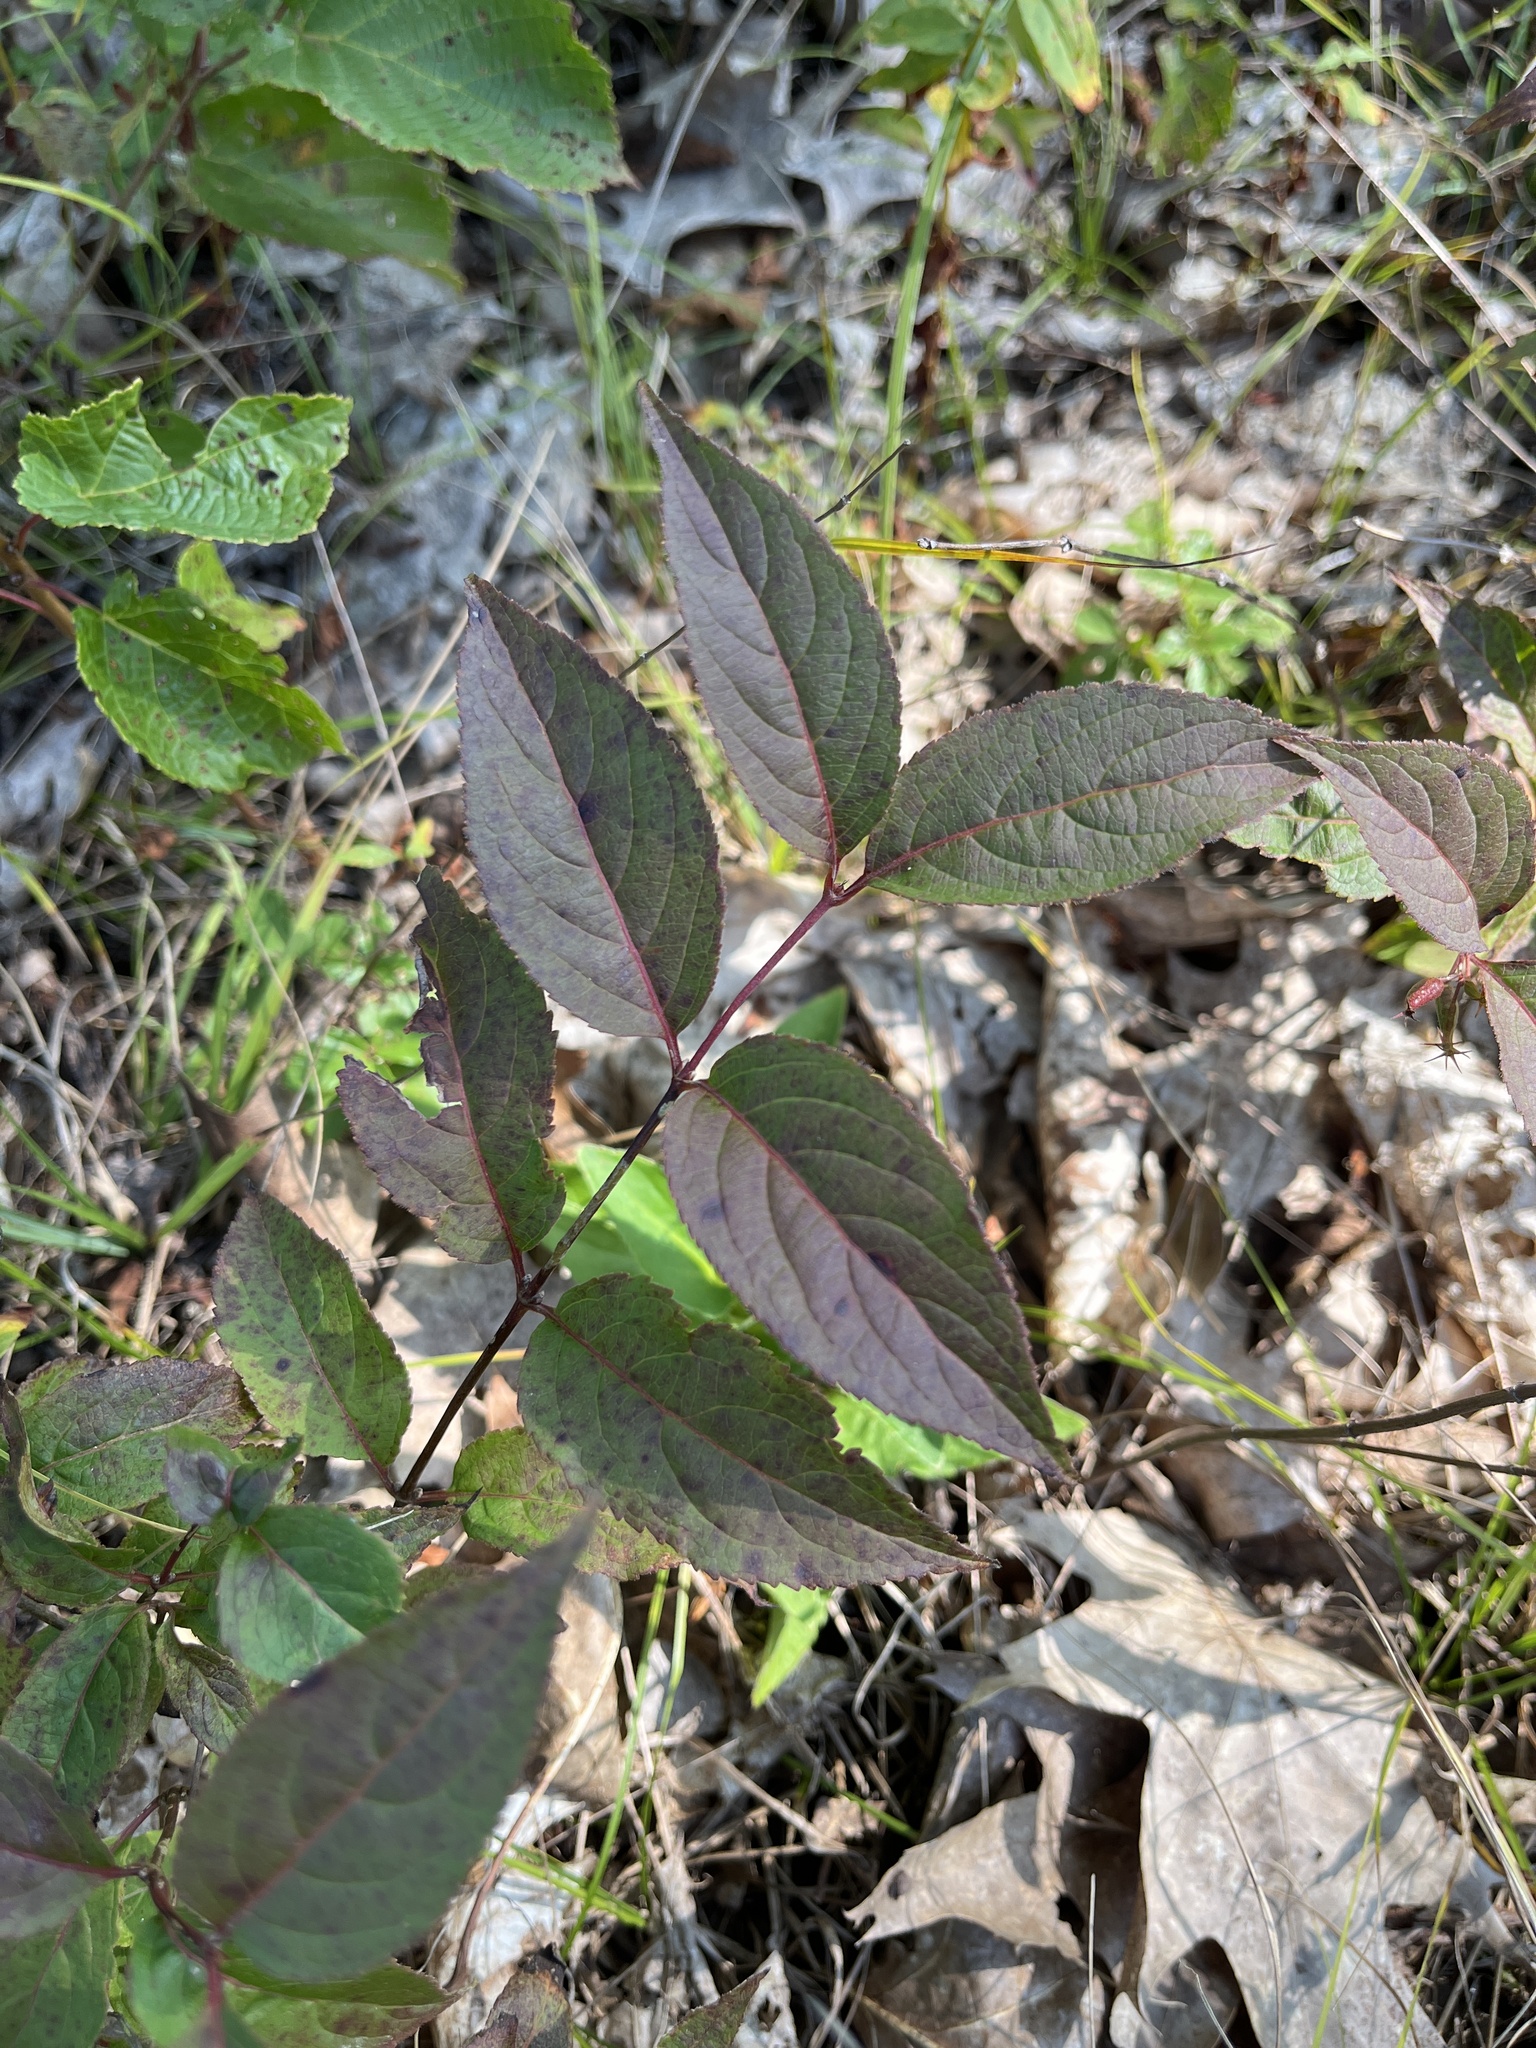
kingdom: Plantae
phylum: Tracheophyta
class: Magnoliopsida
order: Dipsacales
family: Caprifoliaceae
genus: Diervilla
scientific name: Diervilla lonicera
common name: Bush-honeysuckle
